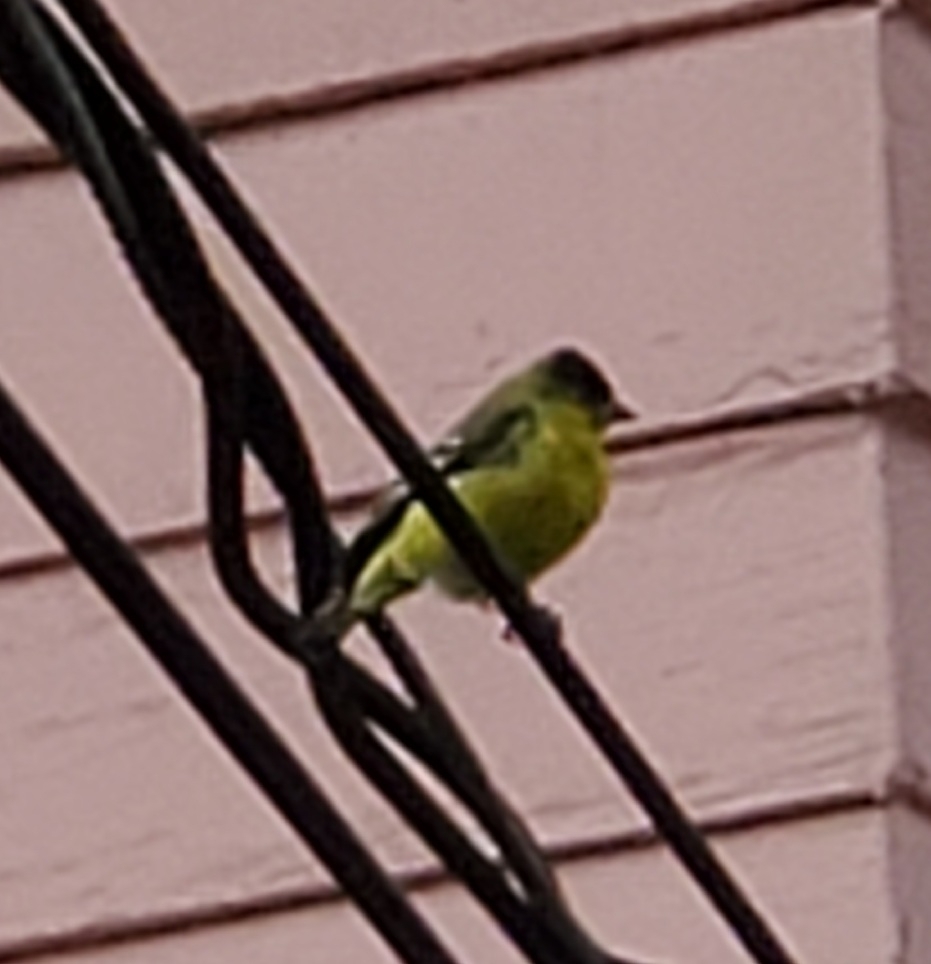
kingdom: Animalia
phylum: Chordata
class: Aves
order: Passeriformes
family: Fringillidae
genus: Spinus
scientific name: Spinus psaltria
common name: Lesser goldfinch
